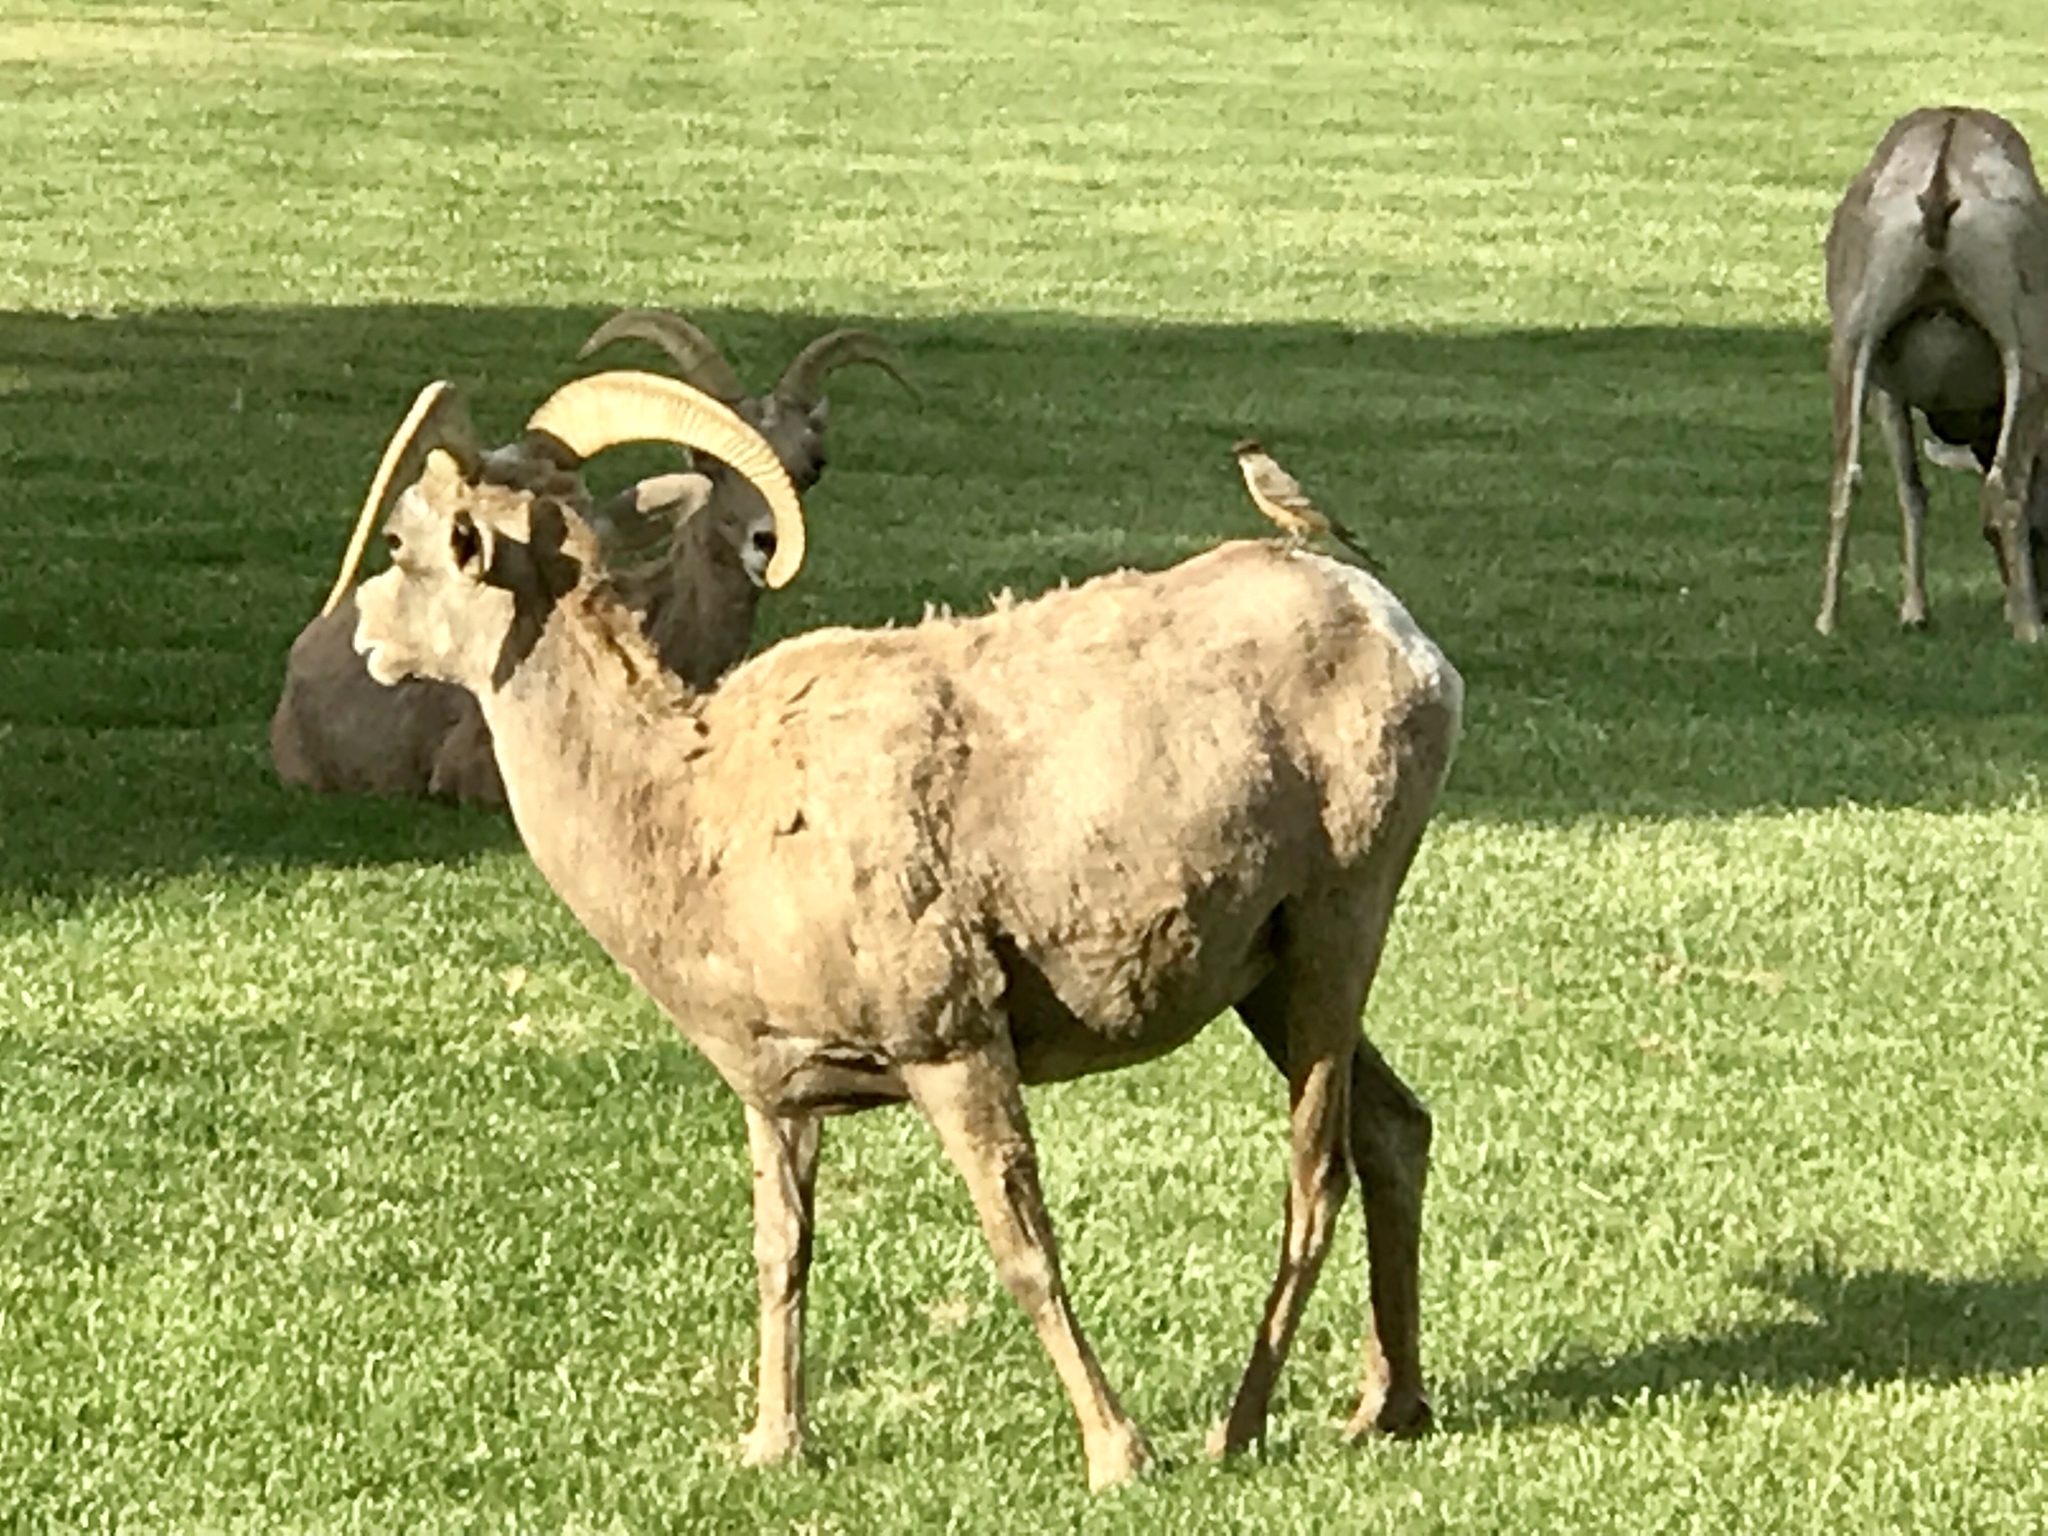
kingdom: Animalia
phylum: Chordata
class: Mammalia
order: Artiodactyla
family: Bovidae
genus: Ovis
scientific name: Ovis canadensis
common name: Bighorn sheep
